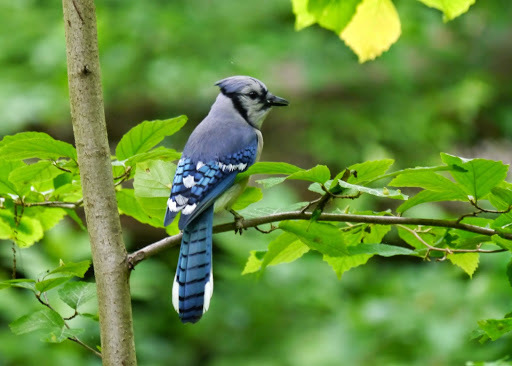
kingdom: Animalia
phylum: Chordata
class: Aves
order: Passeriformes
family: Corvidae
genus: Cyanocitta
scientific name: Cyanocitta cristata
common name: Blue jay
